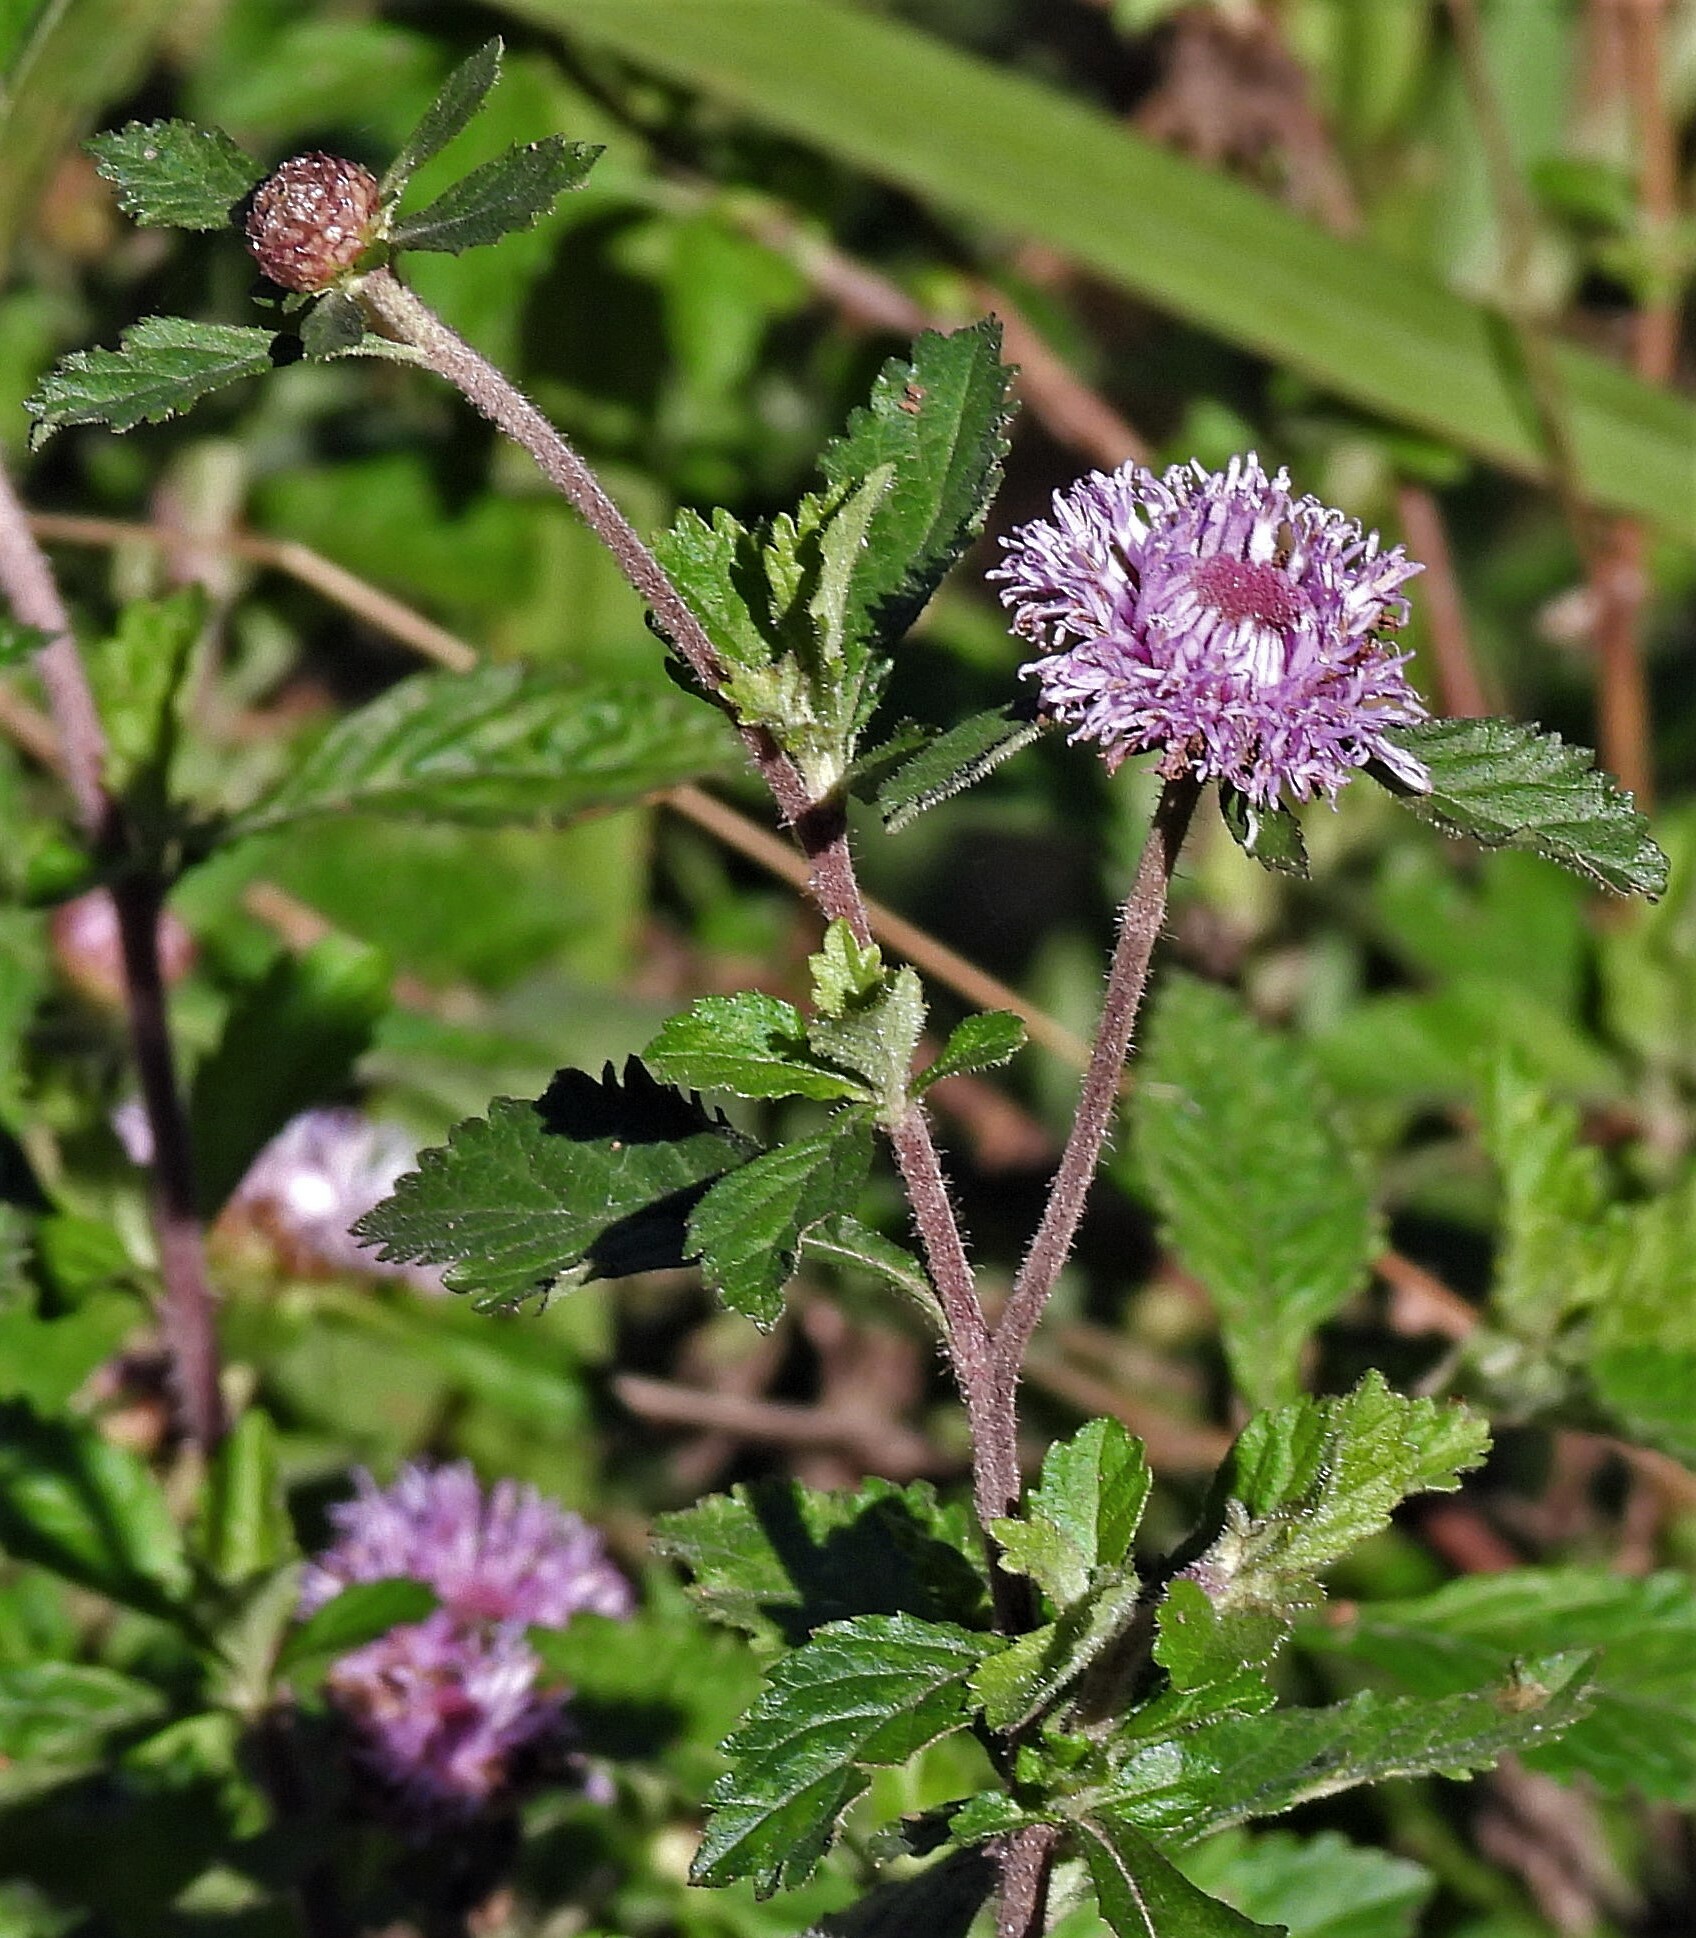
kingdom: Plantae
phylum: Tracheophyta
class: Magnoliopsida
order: Asterales
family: Asteraceae
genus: Centratherum
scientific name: Centratherum punctatum
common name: Larkdaisy
